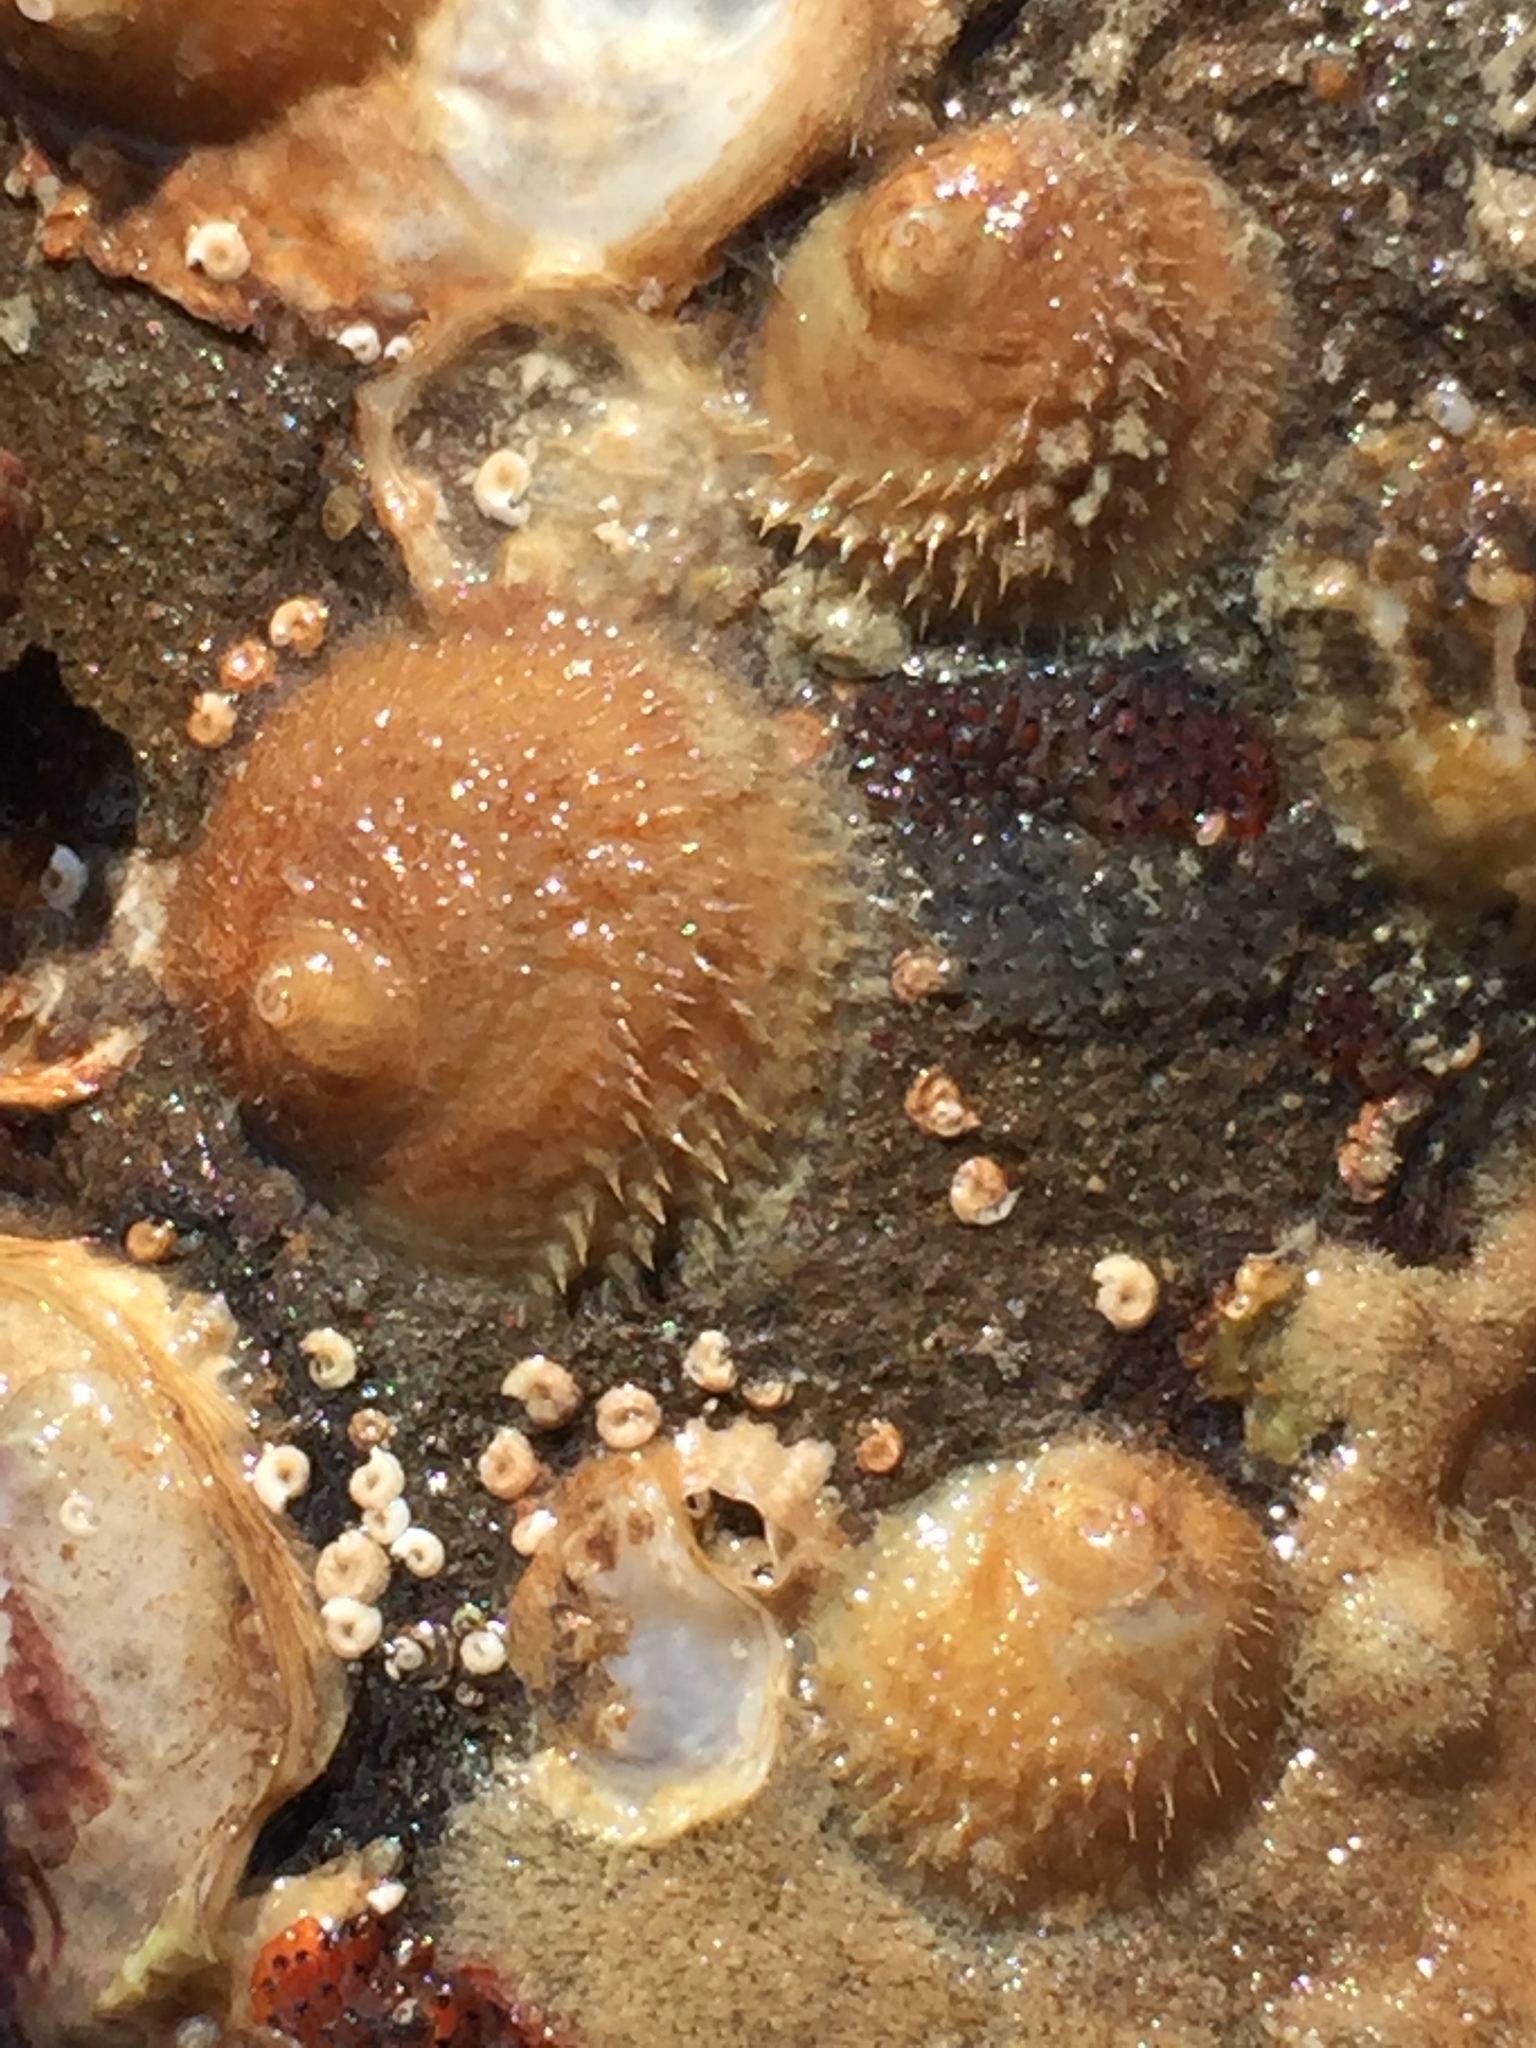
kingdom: Animalia
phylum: Mollusca
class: Gastropoda
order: Littorinimorpha
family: Calyptraeidae
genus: Sigapatella
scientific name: Sigapatella novaezelandiae
